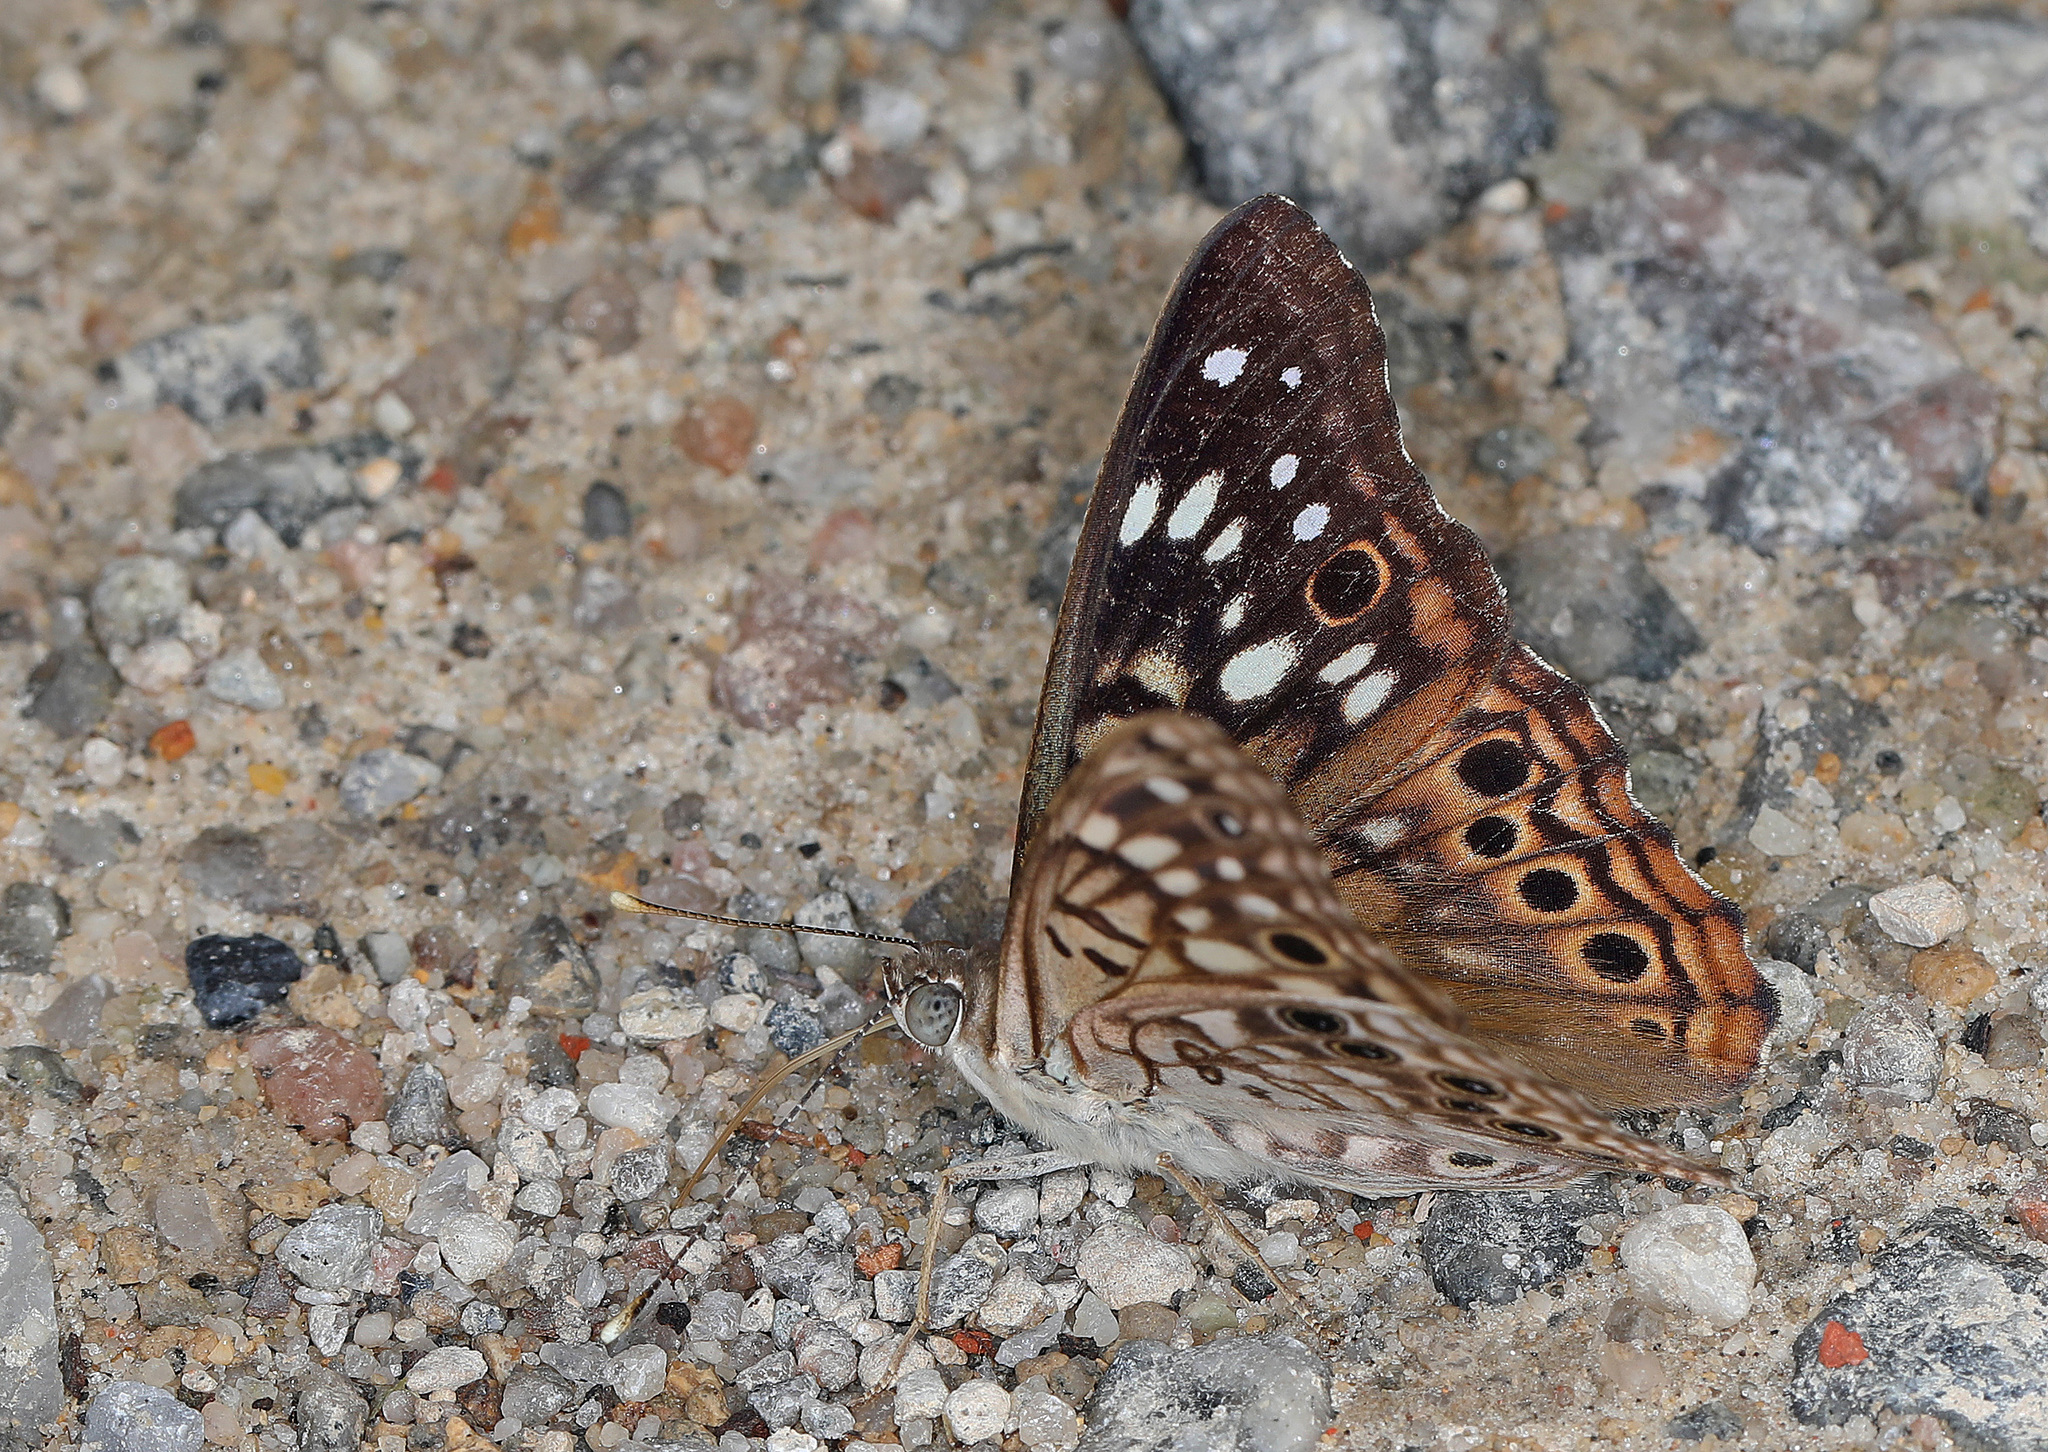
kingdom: Animalia
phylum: Arthropoda
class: Insecta
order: Lepidoptera
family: Nymphalidae
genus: Asterocampa
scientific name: Asterocampa celtis
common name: Hackberry emperor
